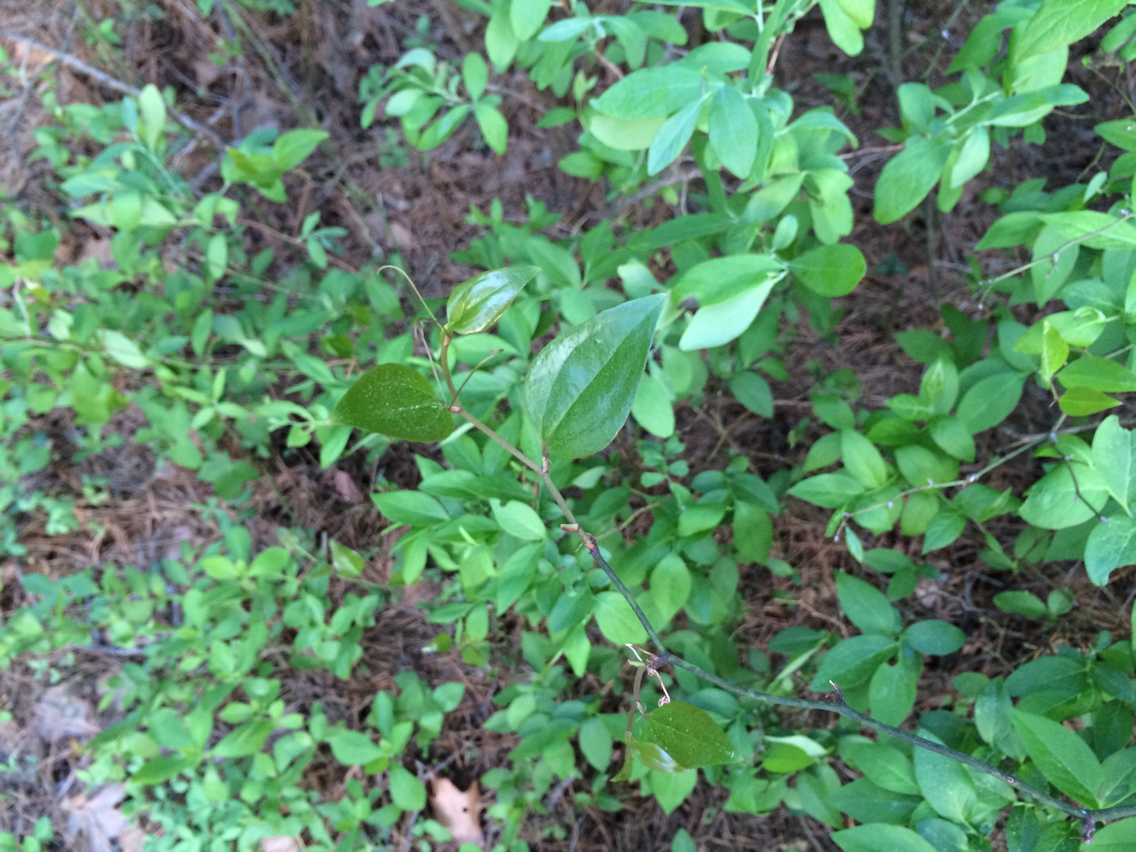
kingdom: Plantae
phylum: Tracheophyta
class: Liliopsida
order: Liliales
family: Smilacaceae
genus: Smilax
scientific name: Smilax
